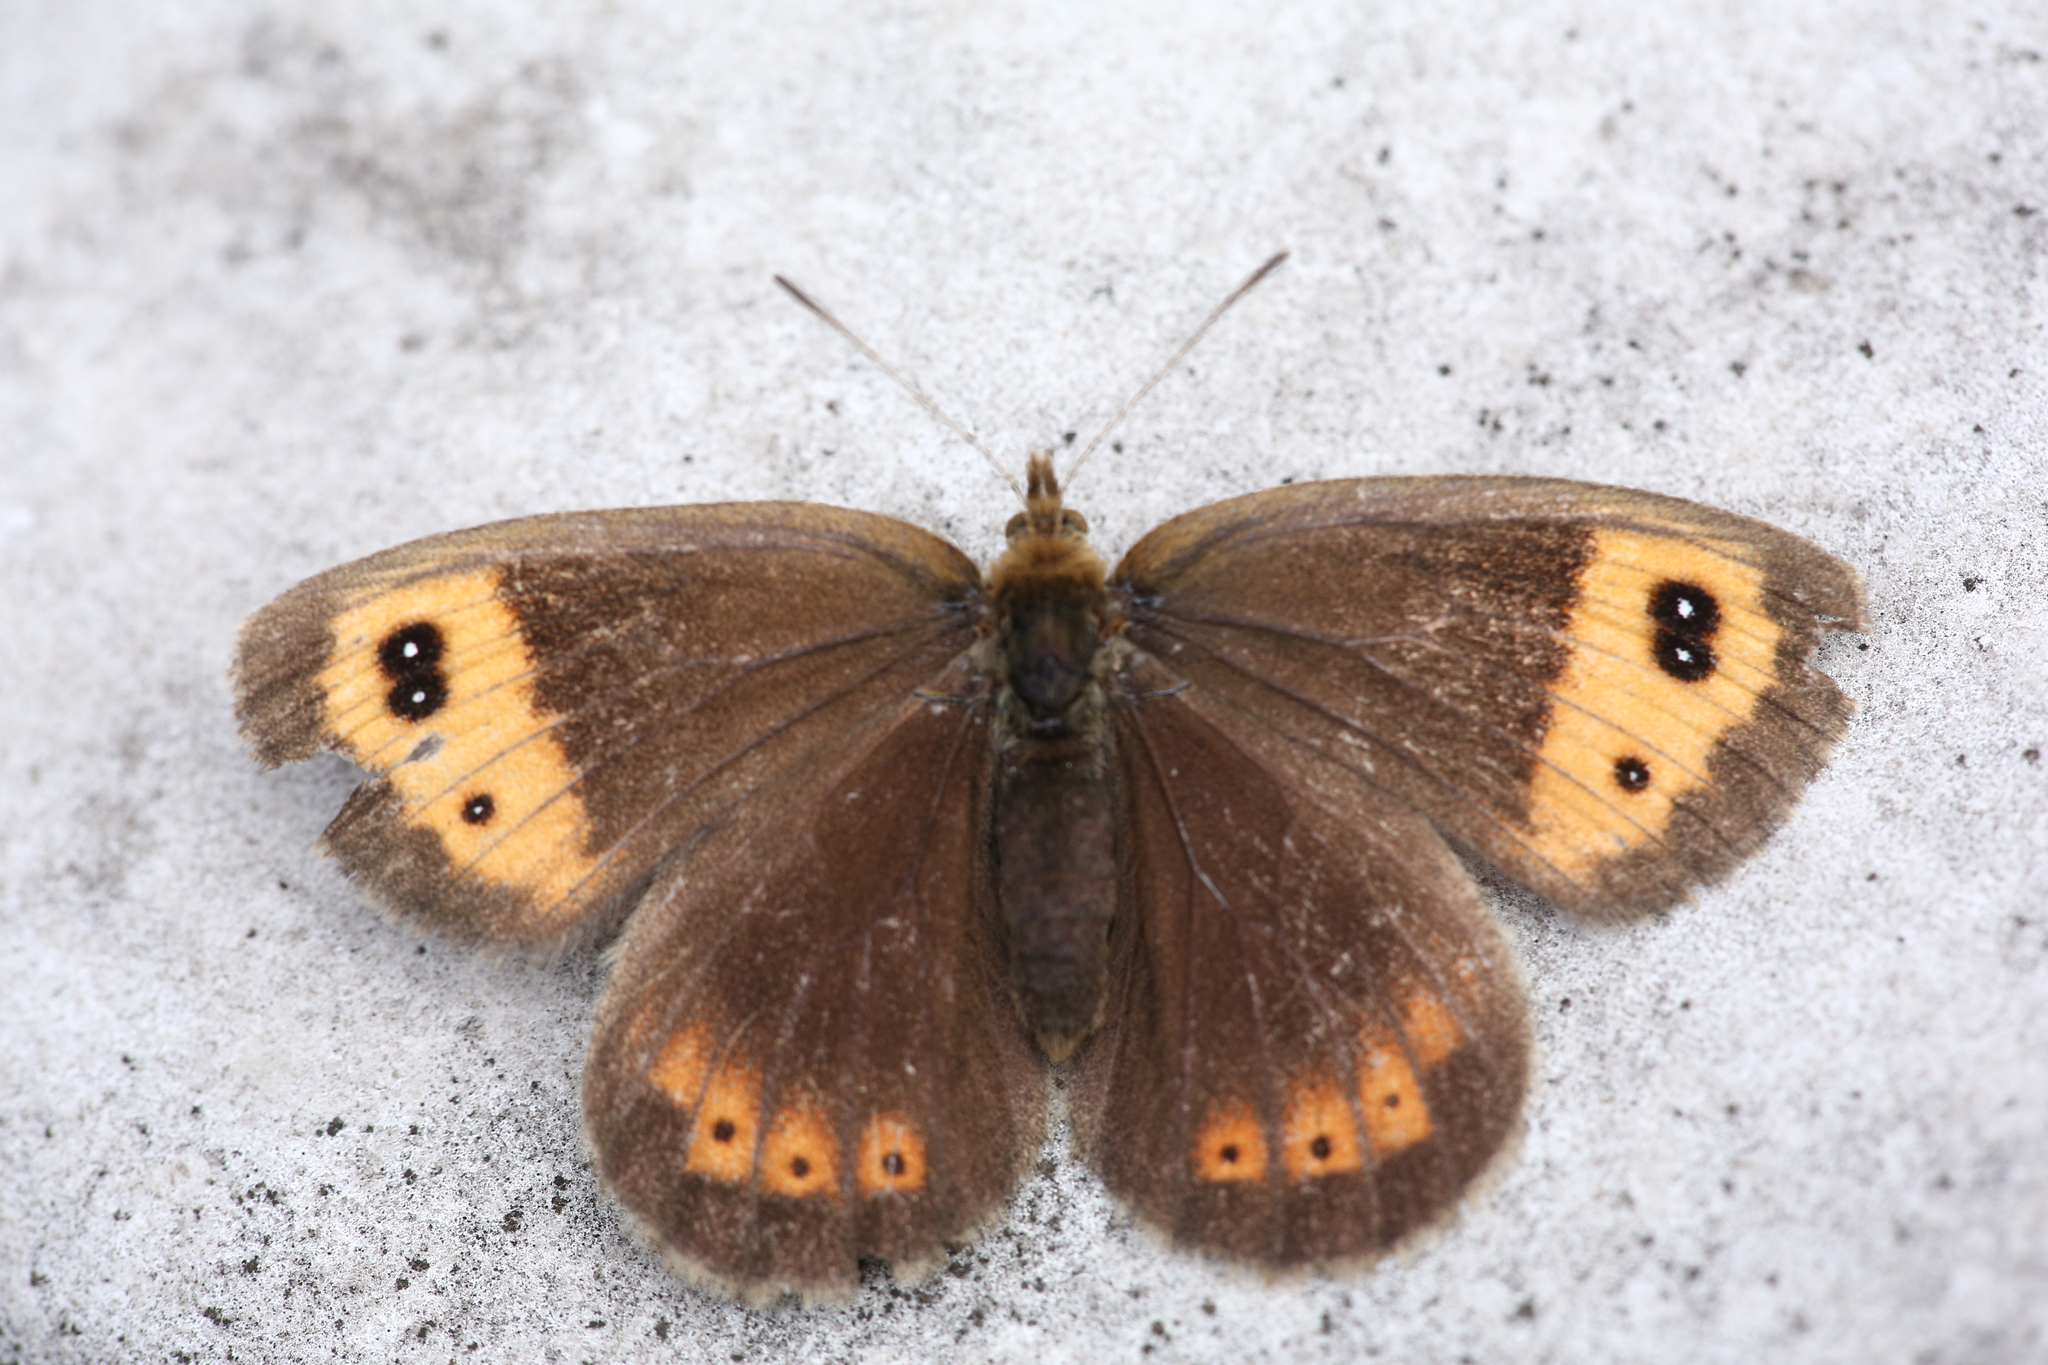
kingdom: Animalia
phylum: Arthropoda
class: Insecta
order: Lepidoptera
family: Nymphalidae
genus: Erebia
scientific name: Erebia neoridas
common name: Autumn ringlet
